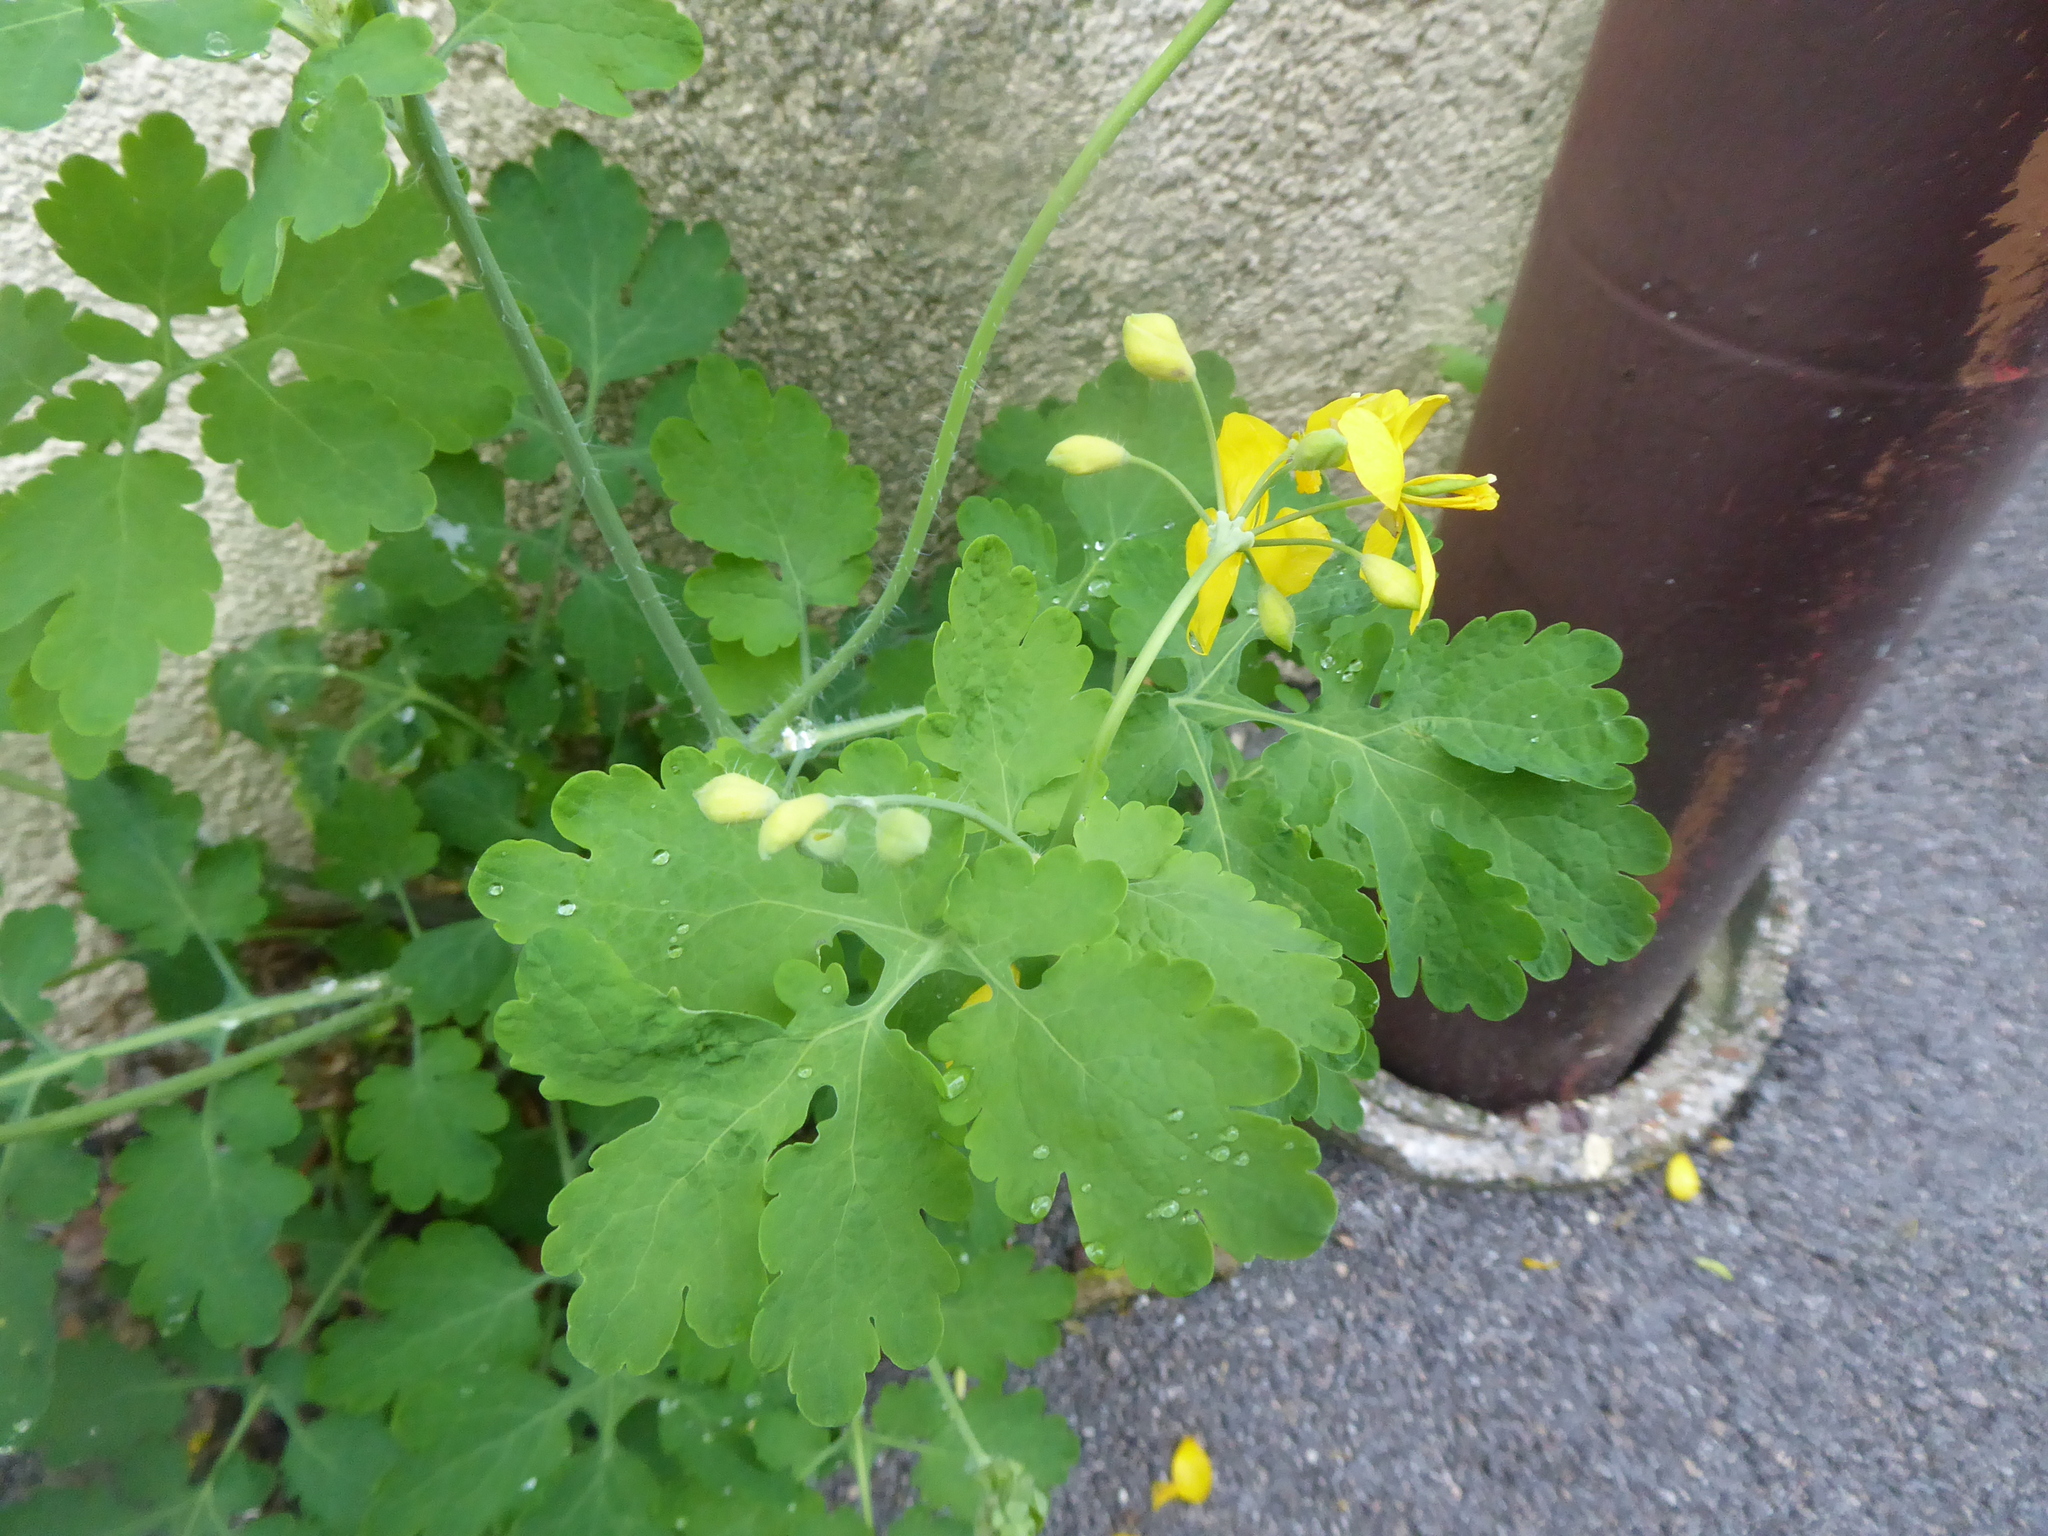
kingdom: Plantae
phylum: Tracheophyta
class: Magnoliopsida
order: Ranunculales
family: Papaveraceae
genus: Chelidonium
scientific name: Chelidonium majus
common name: Greater celandine
